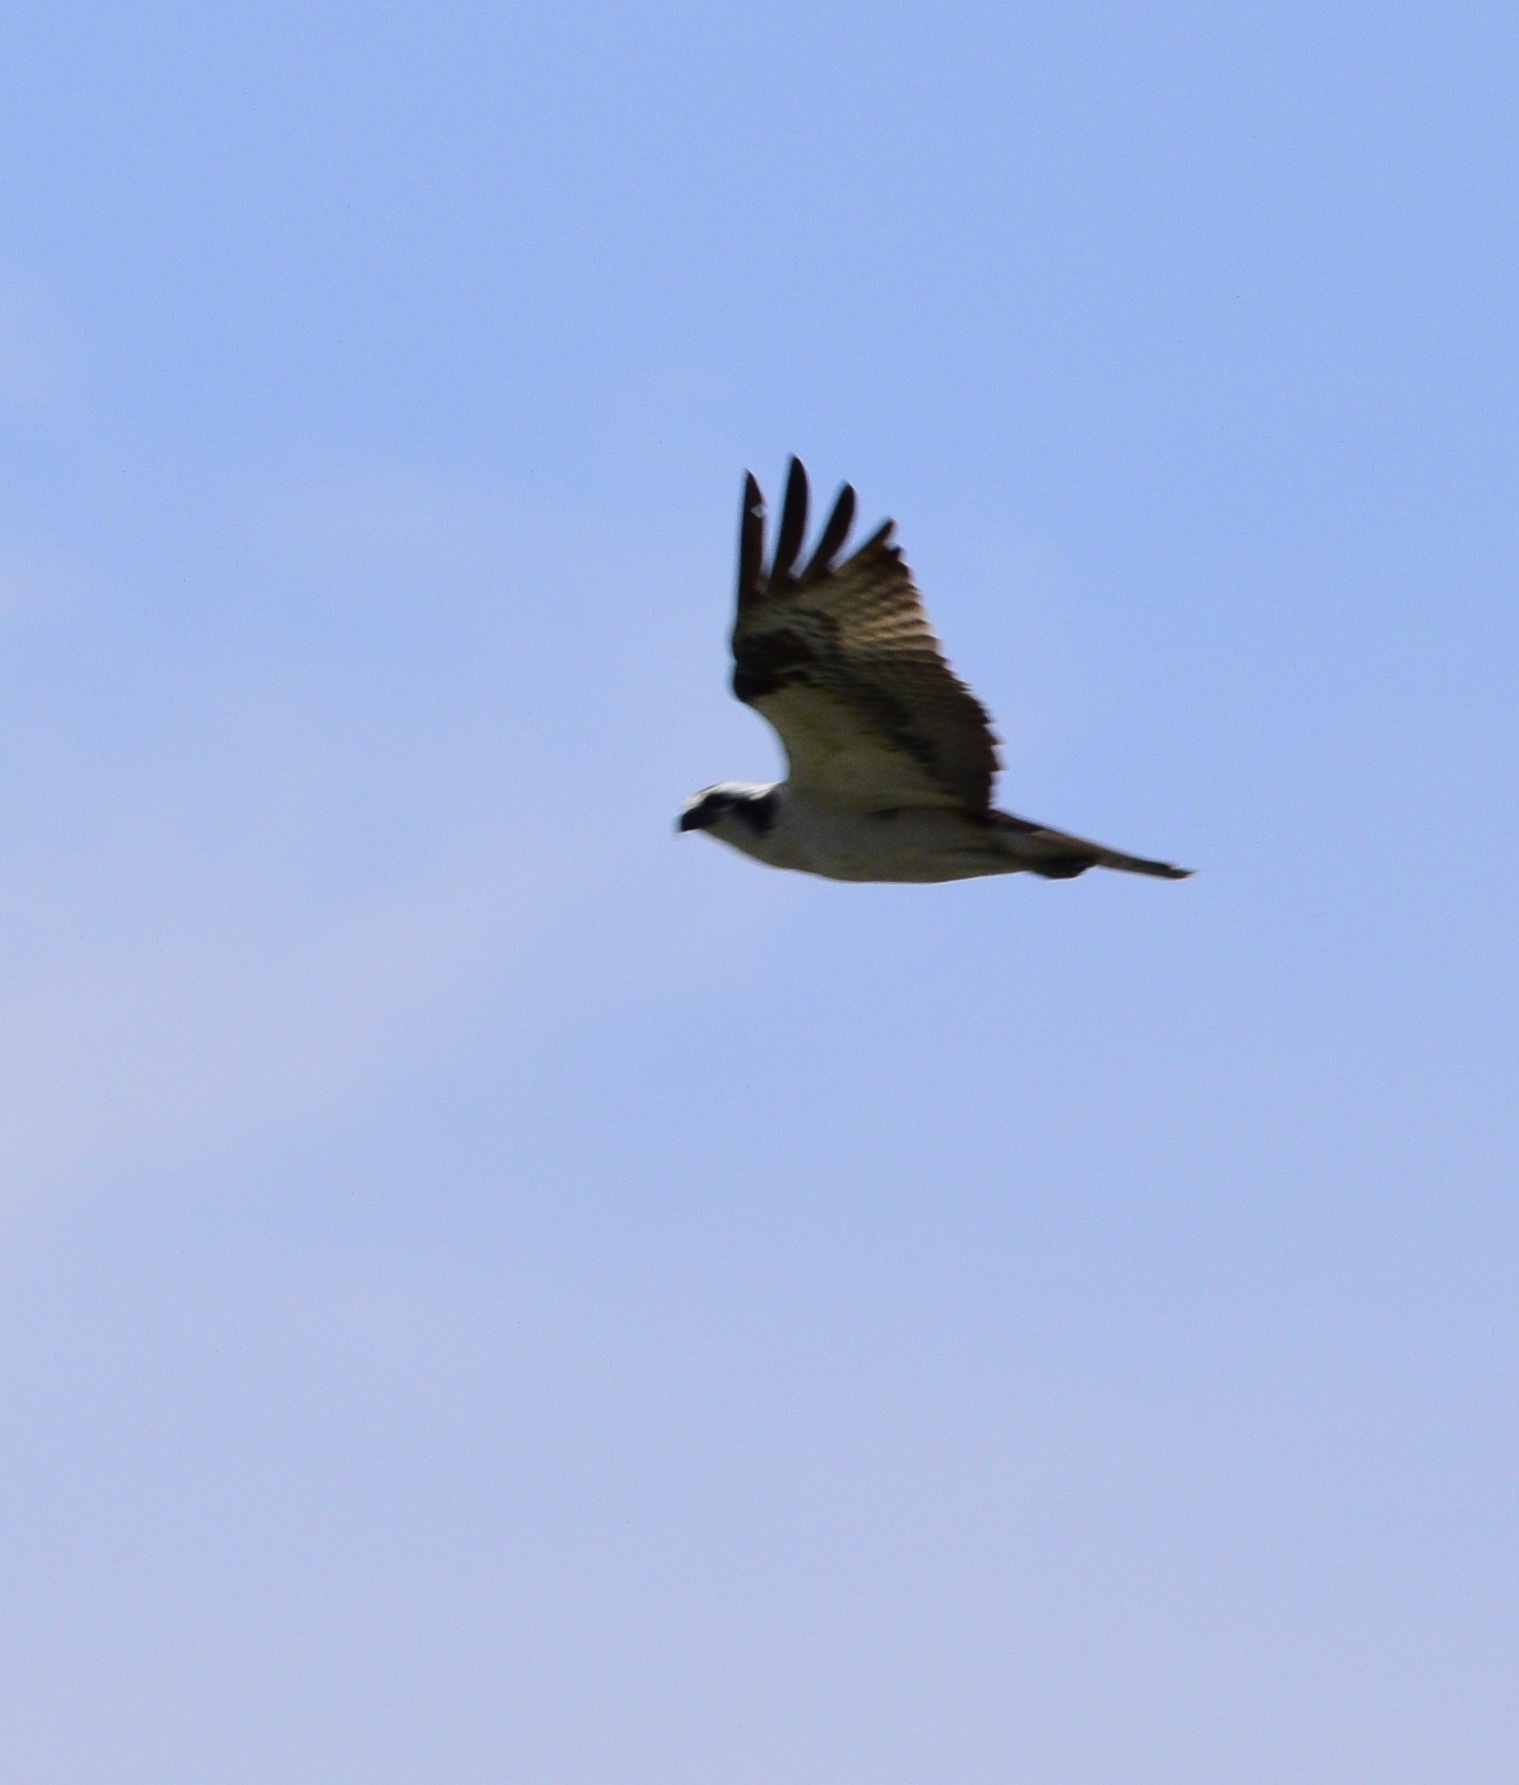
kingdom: Animalia
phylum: Chordata
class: Aves
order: Accipitriformes
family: Pandionidae
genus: Pandion
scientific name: Pandion haliaetus
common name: Osprey
